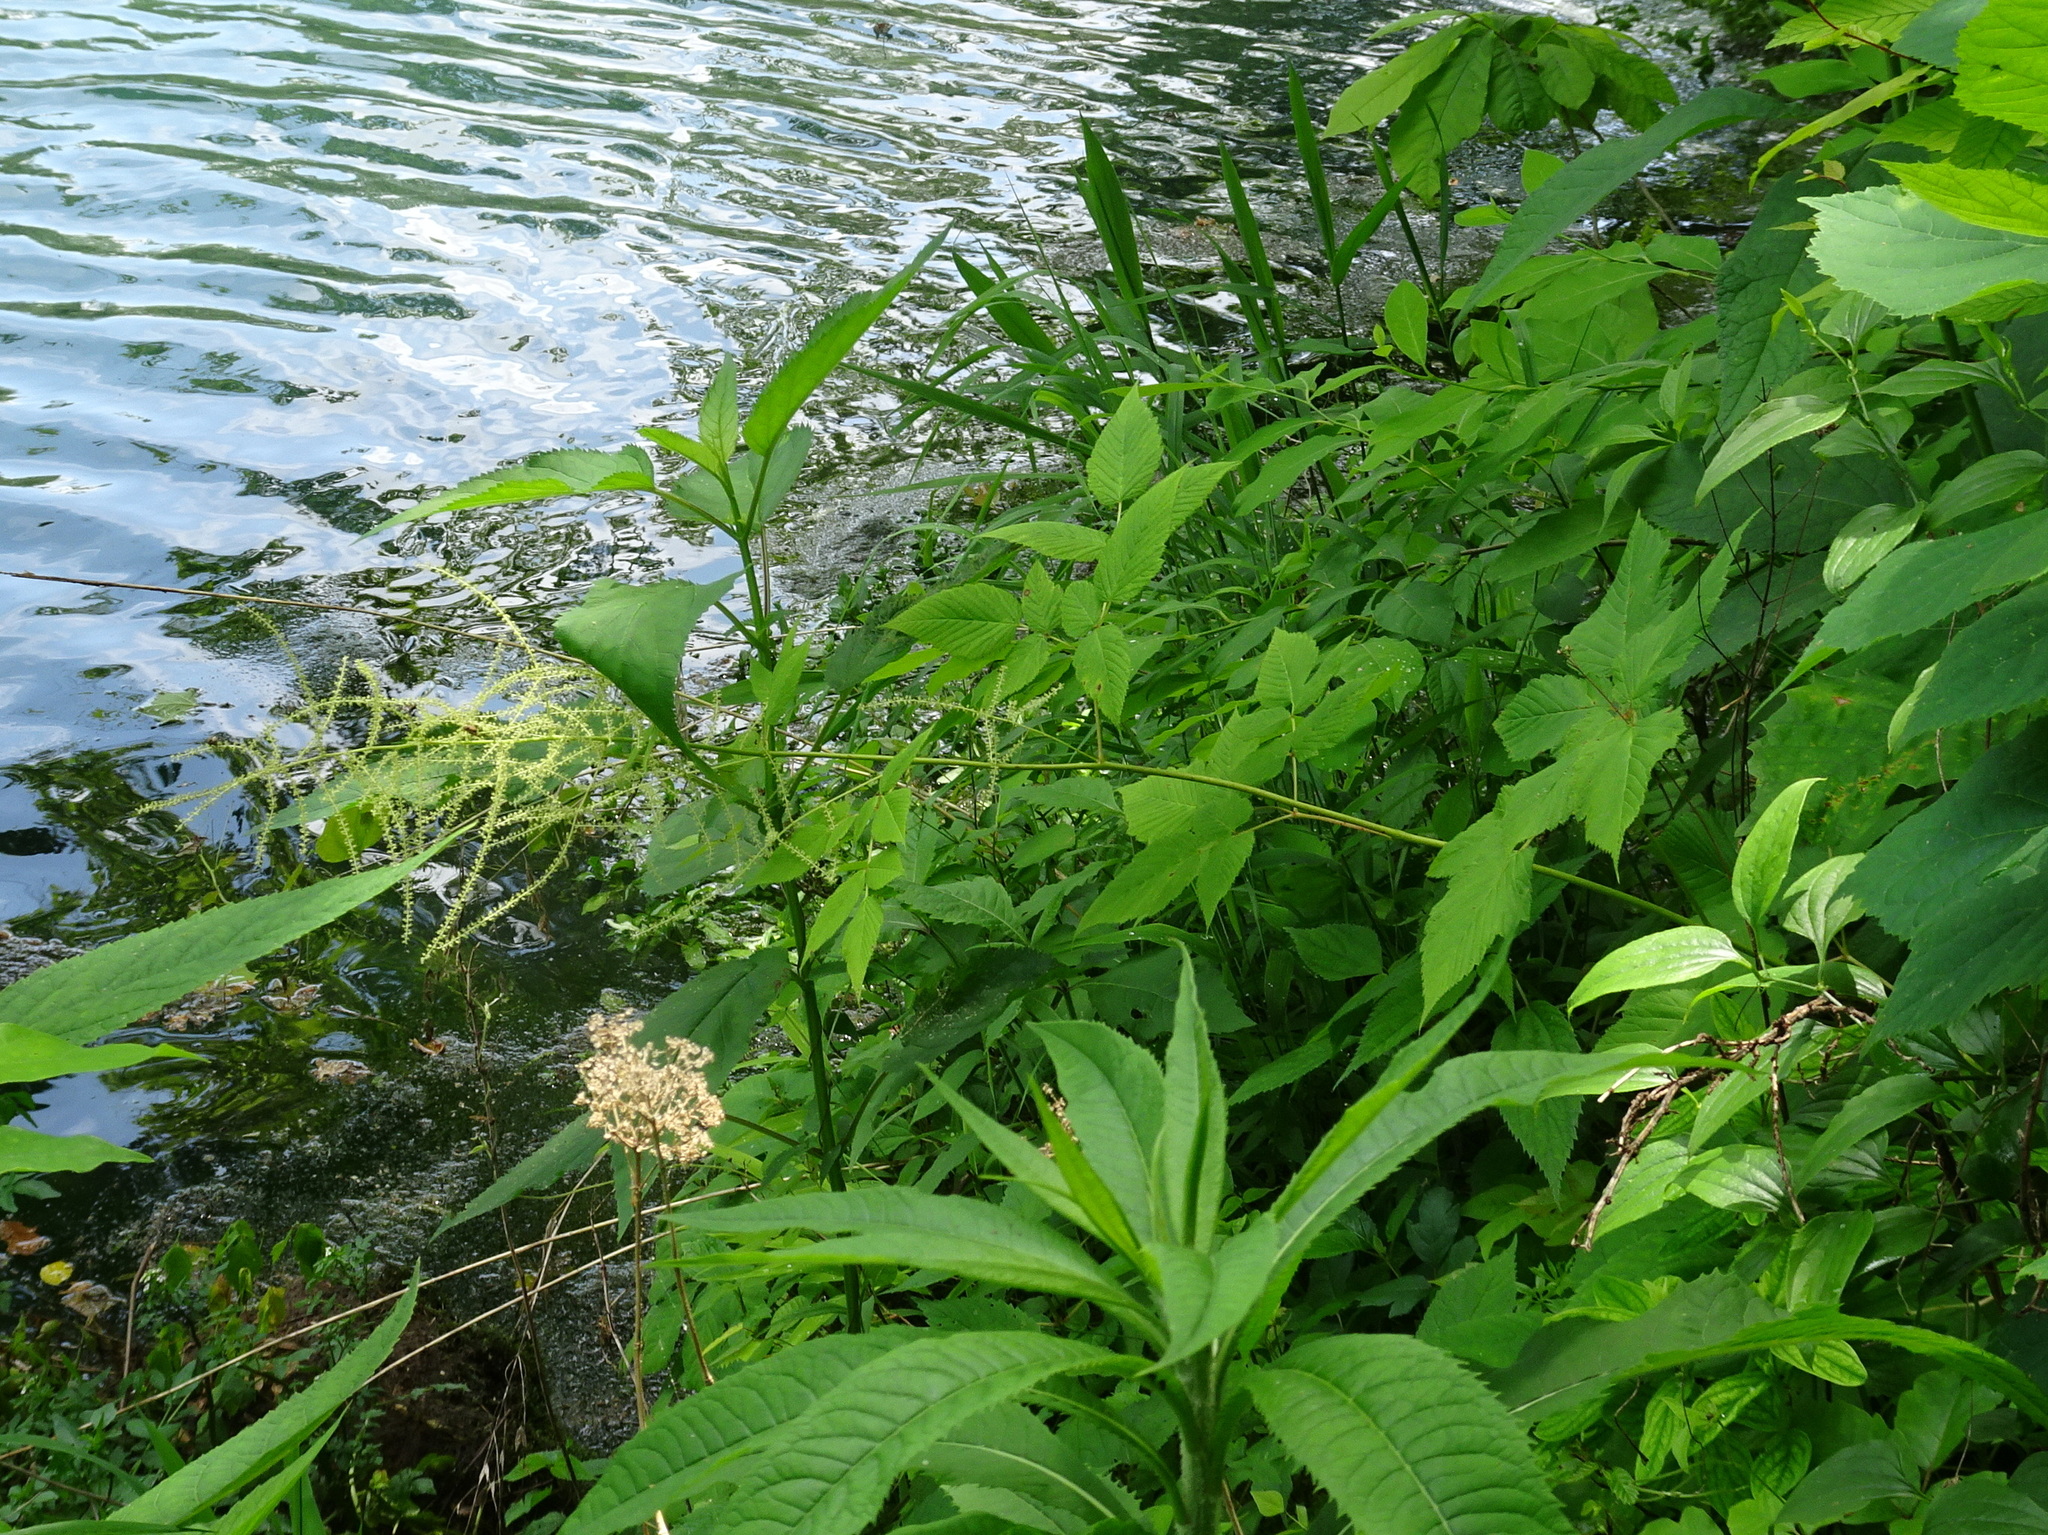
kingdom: Plantae
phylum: Tracheophyta
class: Magnoliopsida
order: Rosales
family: Rosaceae
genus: Aruncus
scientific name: Aruncus dioicus
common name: Buck's-beard
